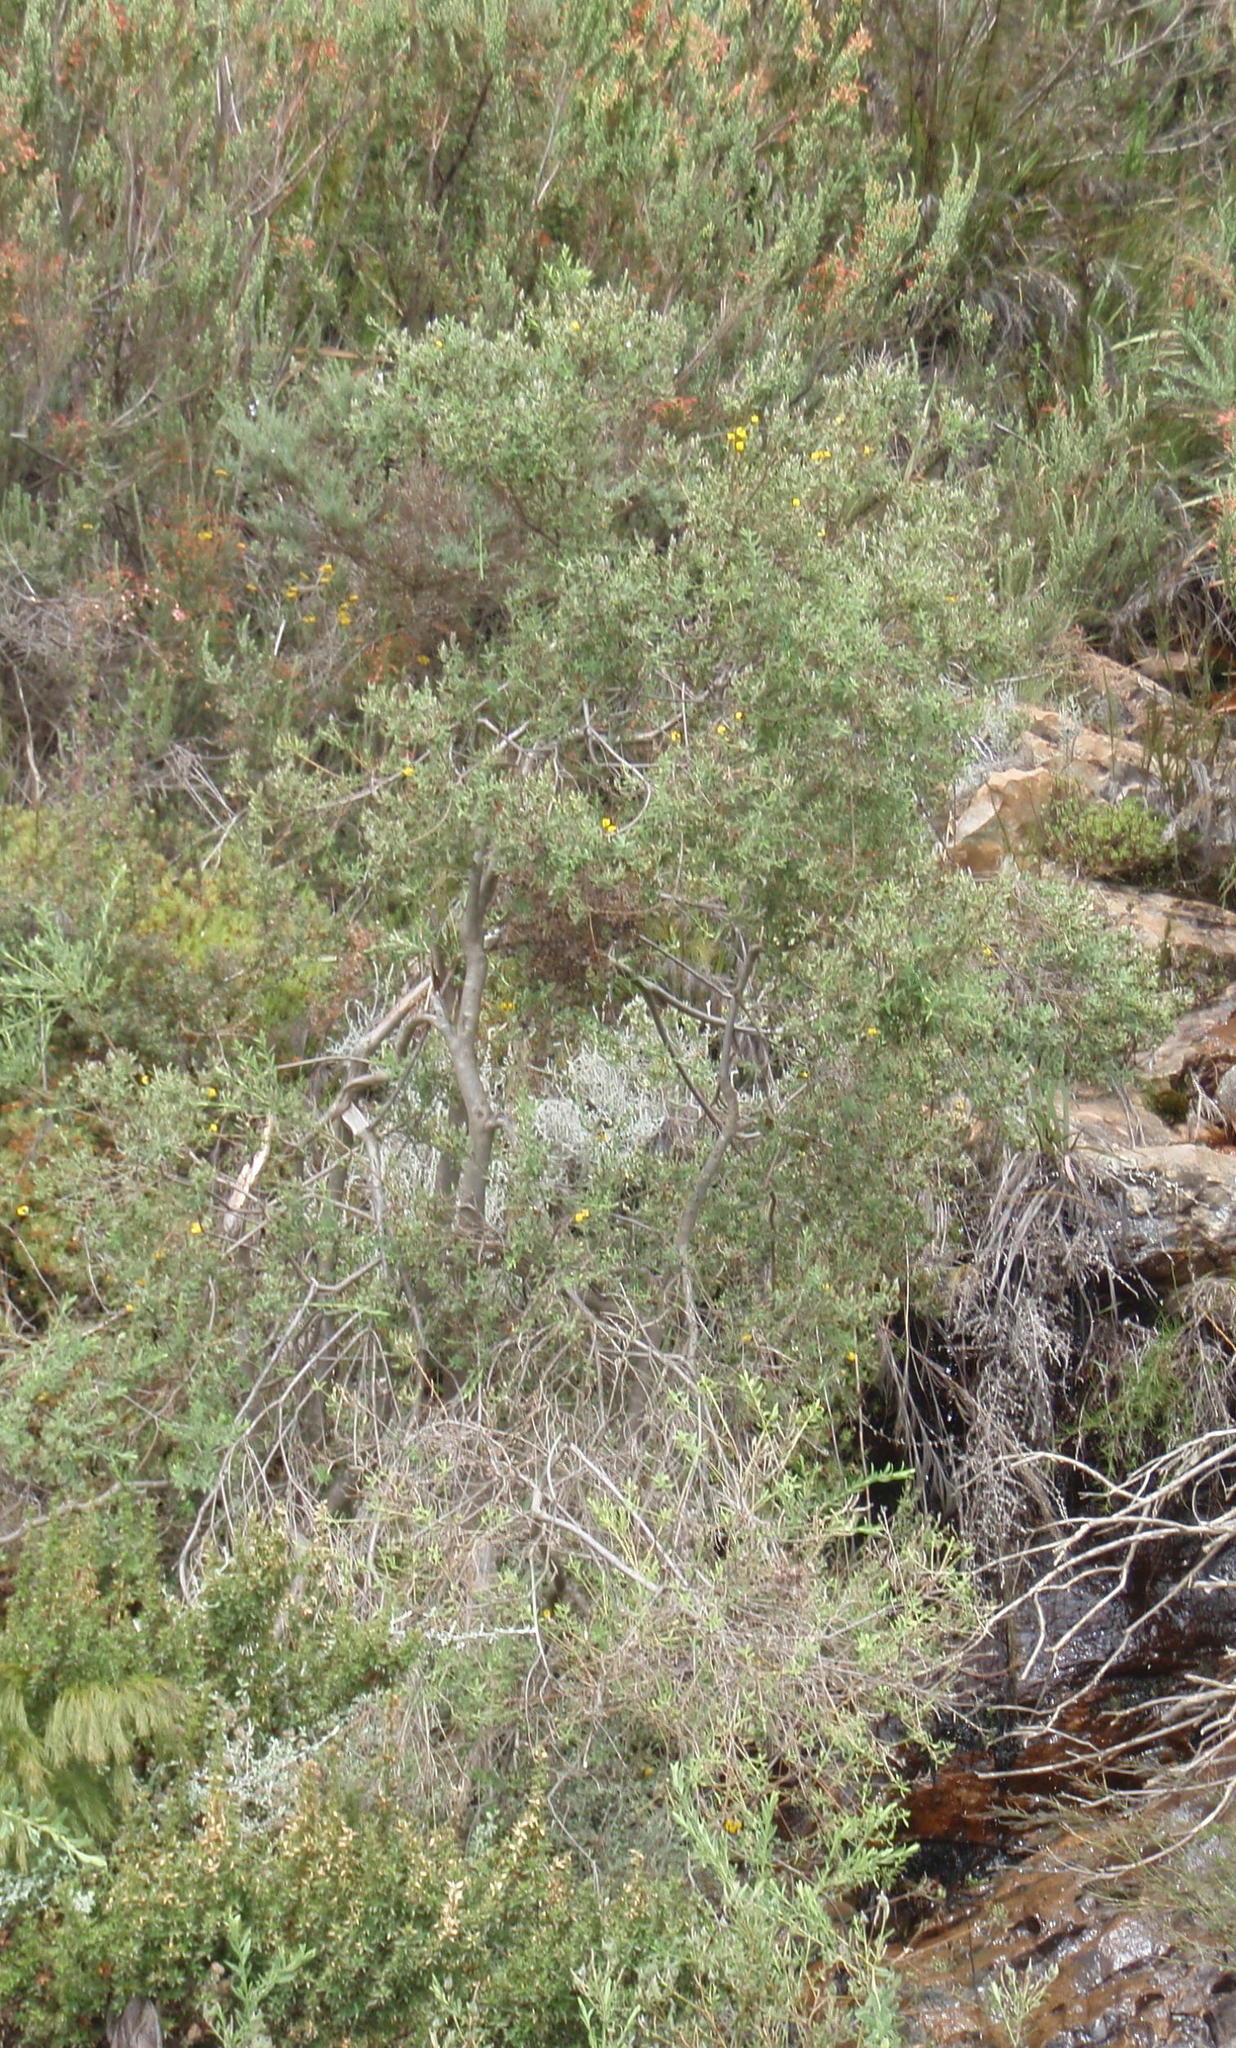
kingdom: Plantae
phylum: Tracheophyta
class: Magnoliopsida
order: Fabales
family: Fabaceae
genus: Liparia
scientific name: Liparia racemosa
